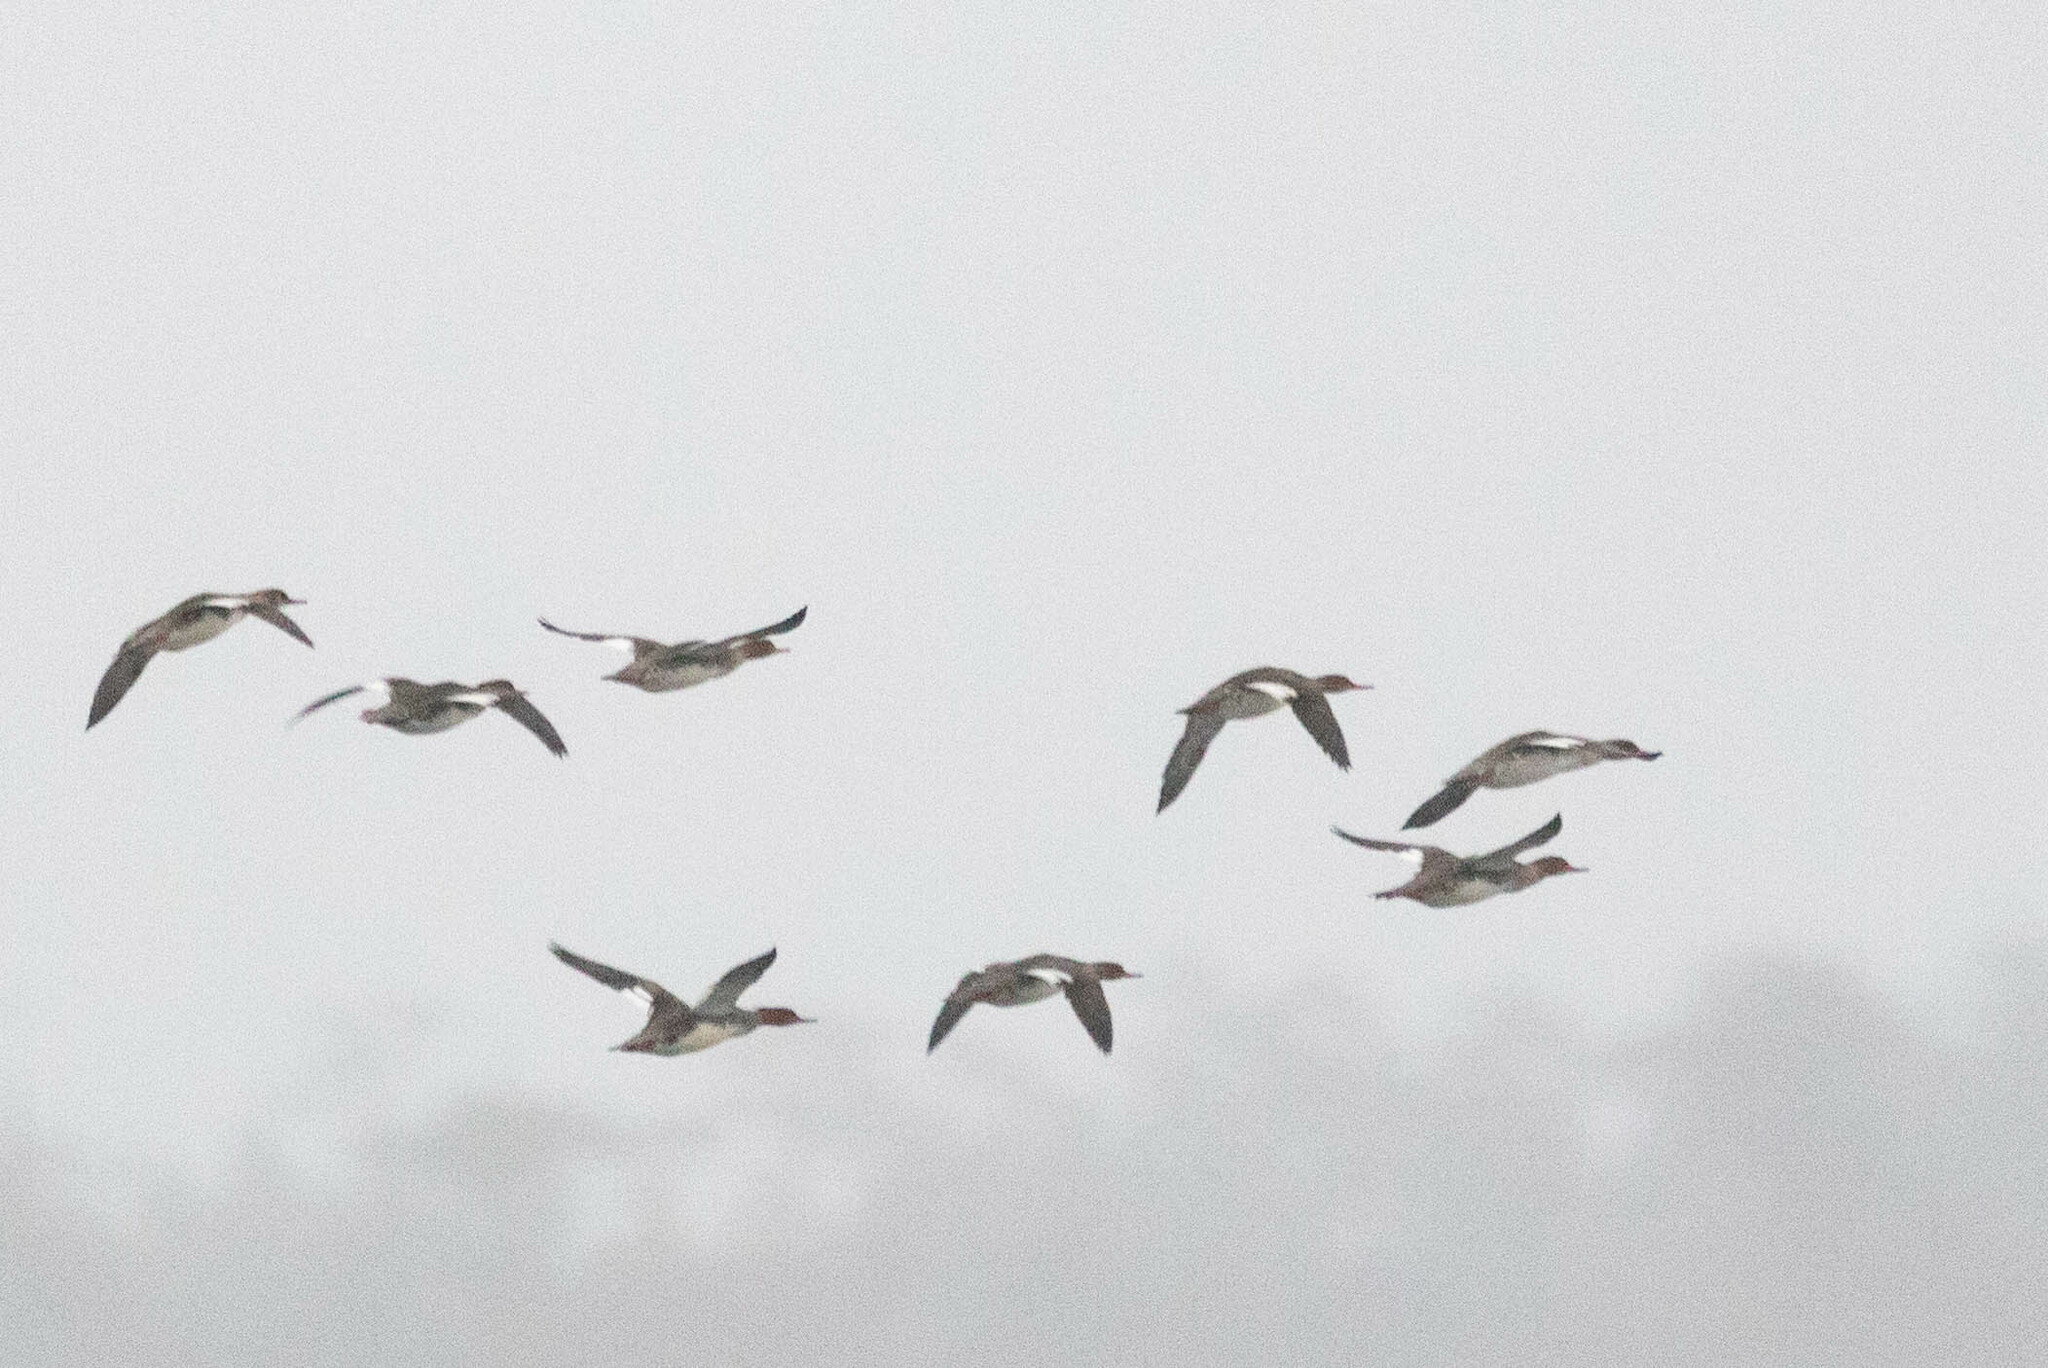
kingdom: Animalia
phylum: Chordata
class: Aves
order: Anseriformes
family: Anatidae
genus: Mergus
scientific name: Mergus serrator
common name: Red-breasted merganser
